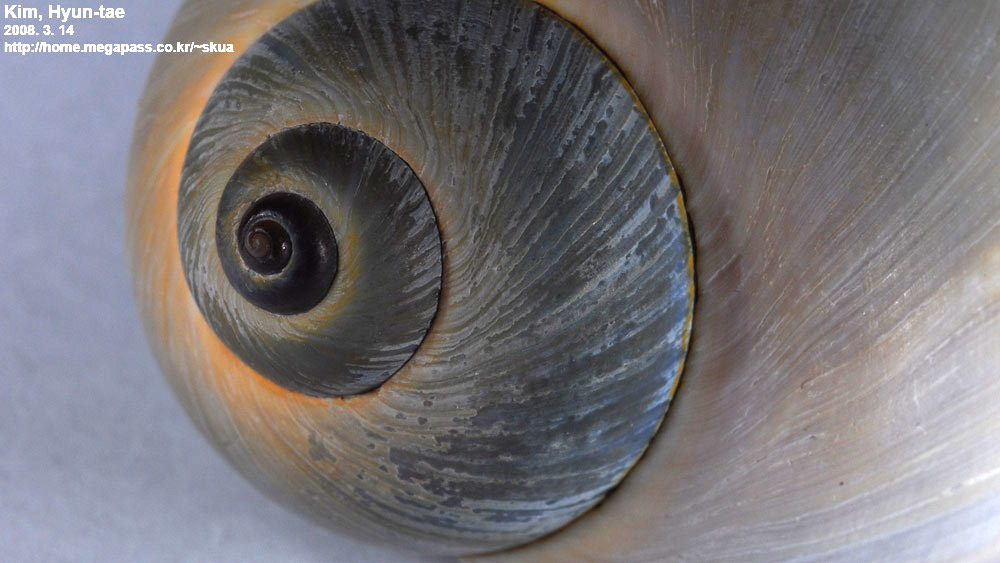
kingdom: Animalia
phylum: Mollusca
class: Gastropoda
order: Littorinimorpha
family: Naticidae
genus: Laguncula
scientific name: Laguncula pulchella
